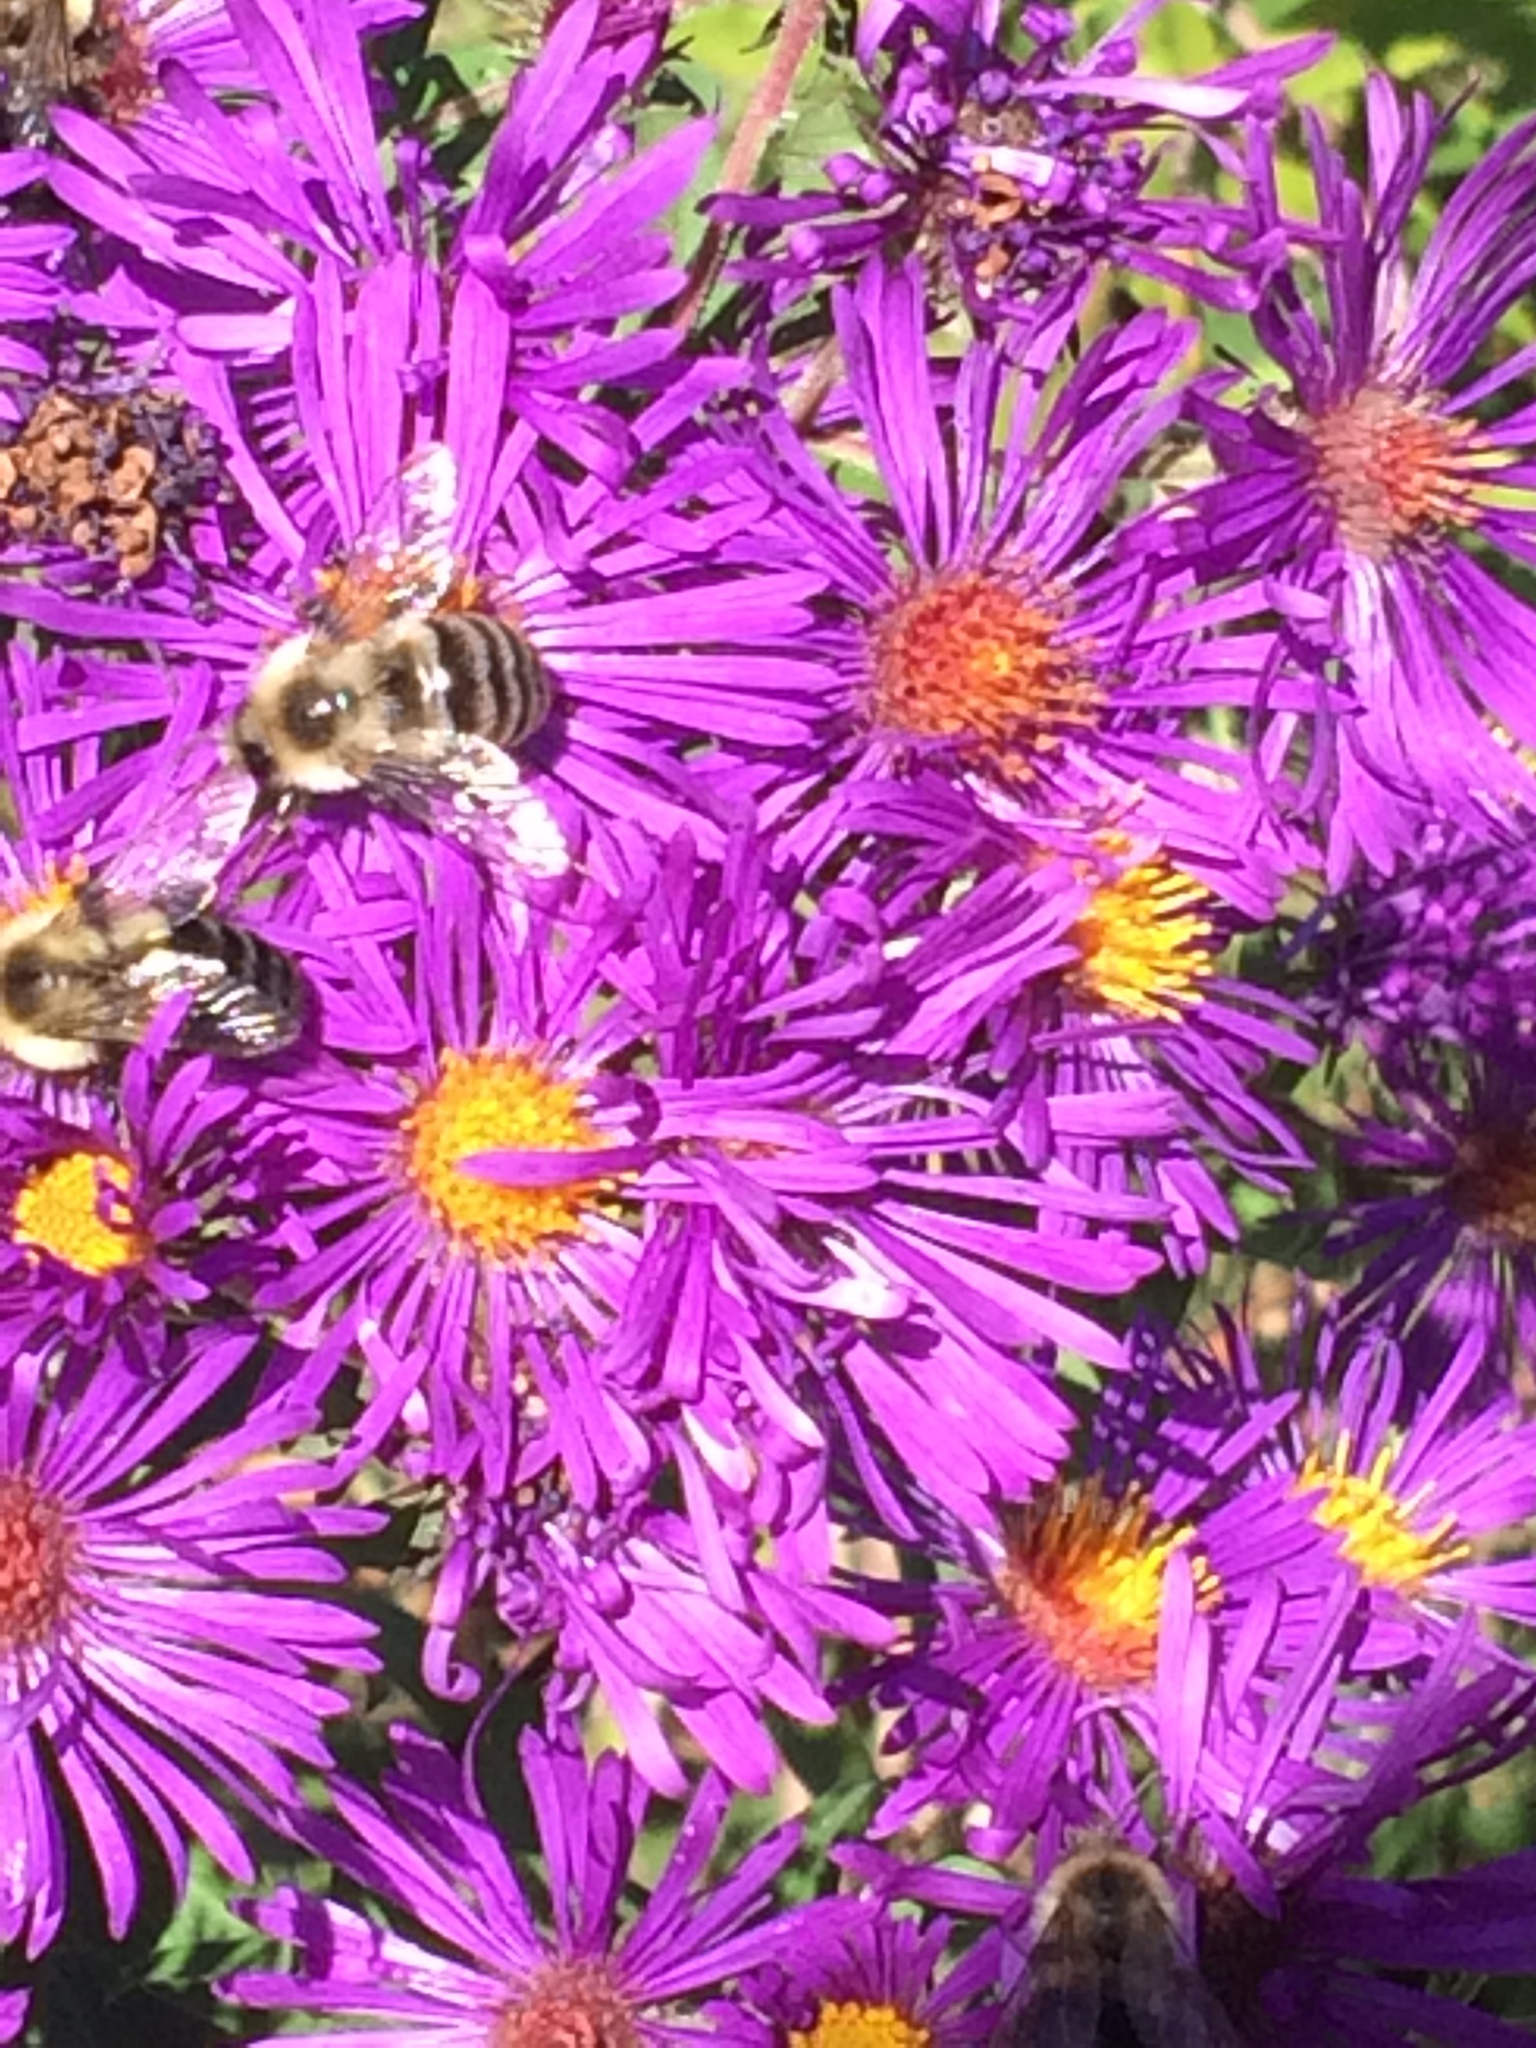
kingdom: Plantae
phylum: Tracheophyta
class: Magnoliopsida
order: Asterales
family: Asteraceae
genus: Symphyotrichum
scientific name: Symphyotrichum novae-angliae
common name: Michaelmas daisy
